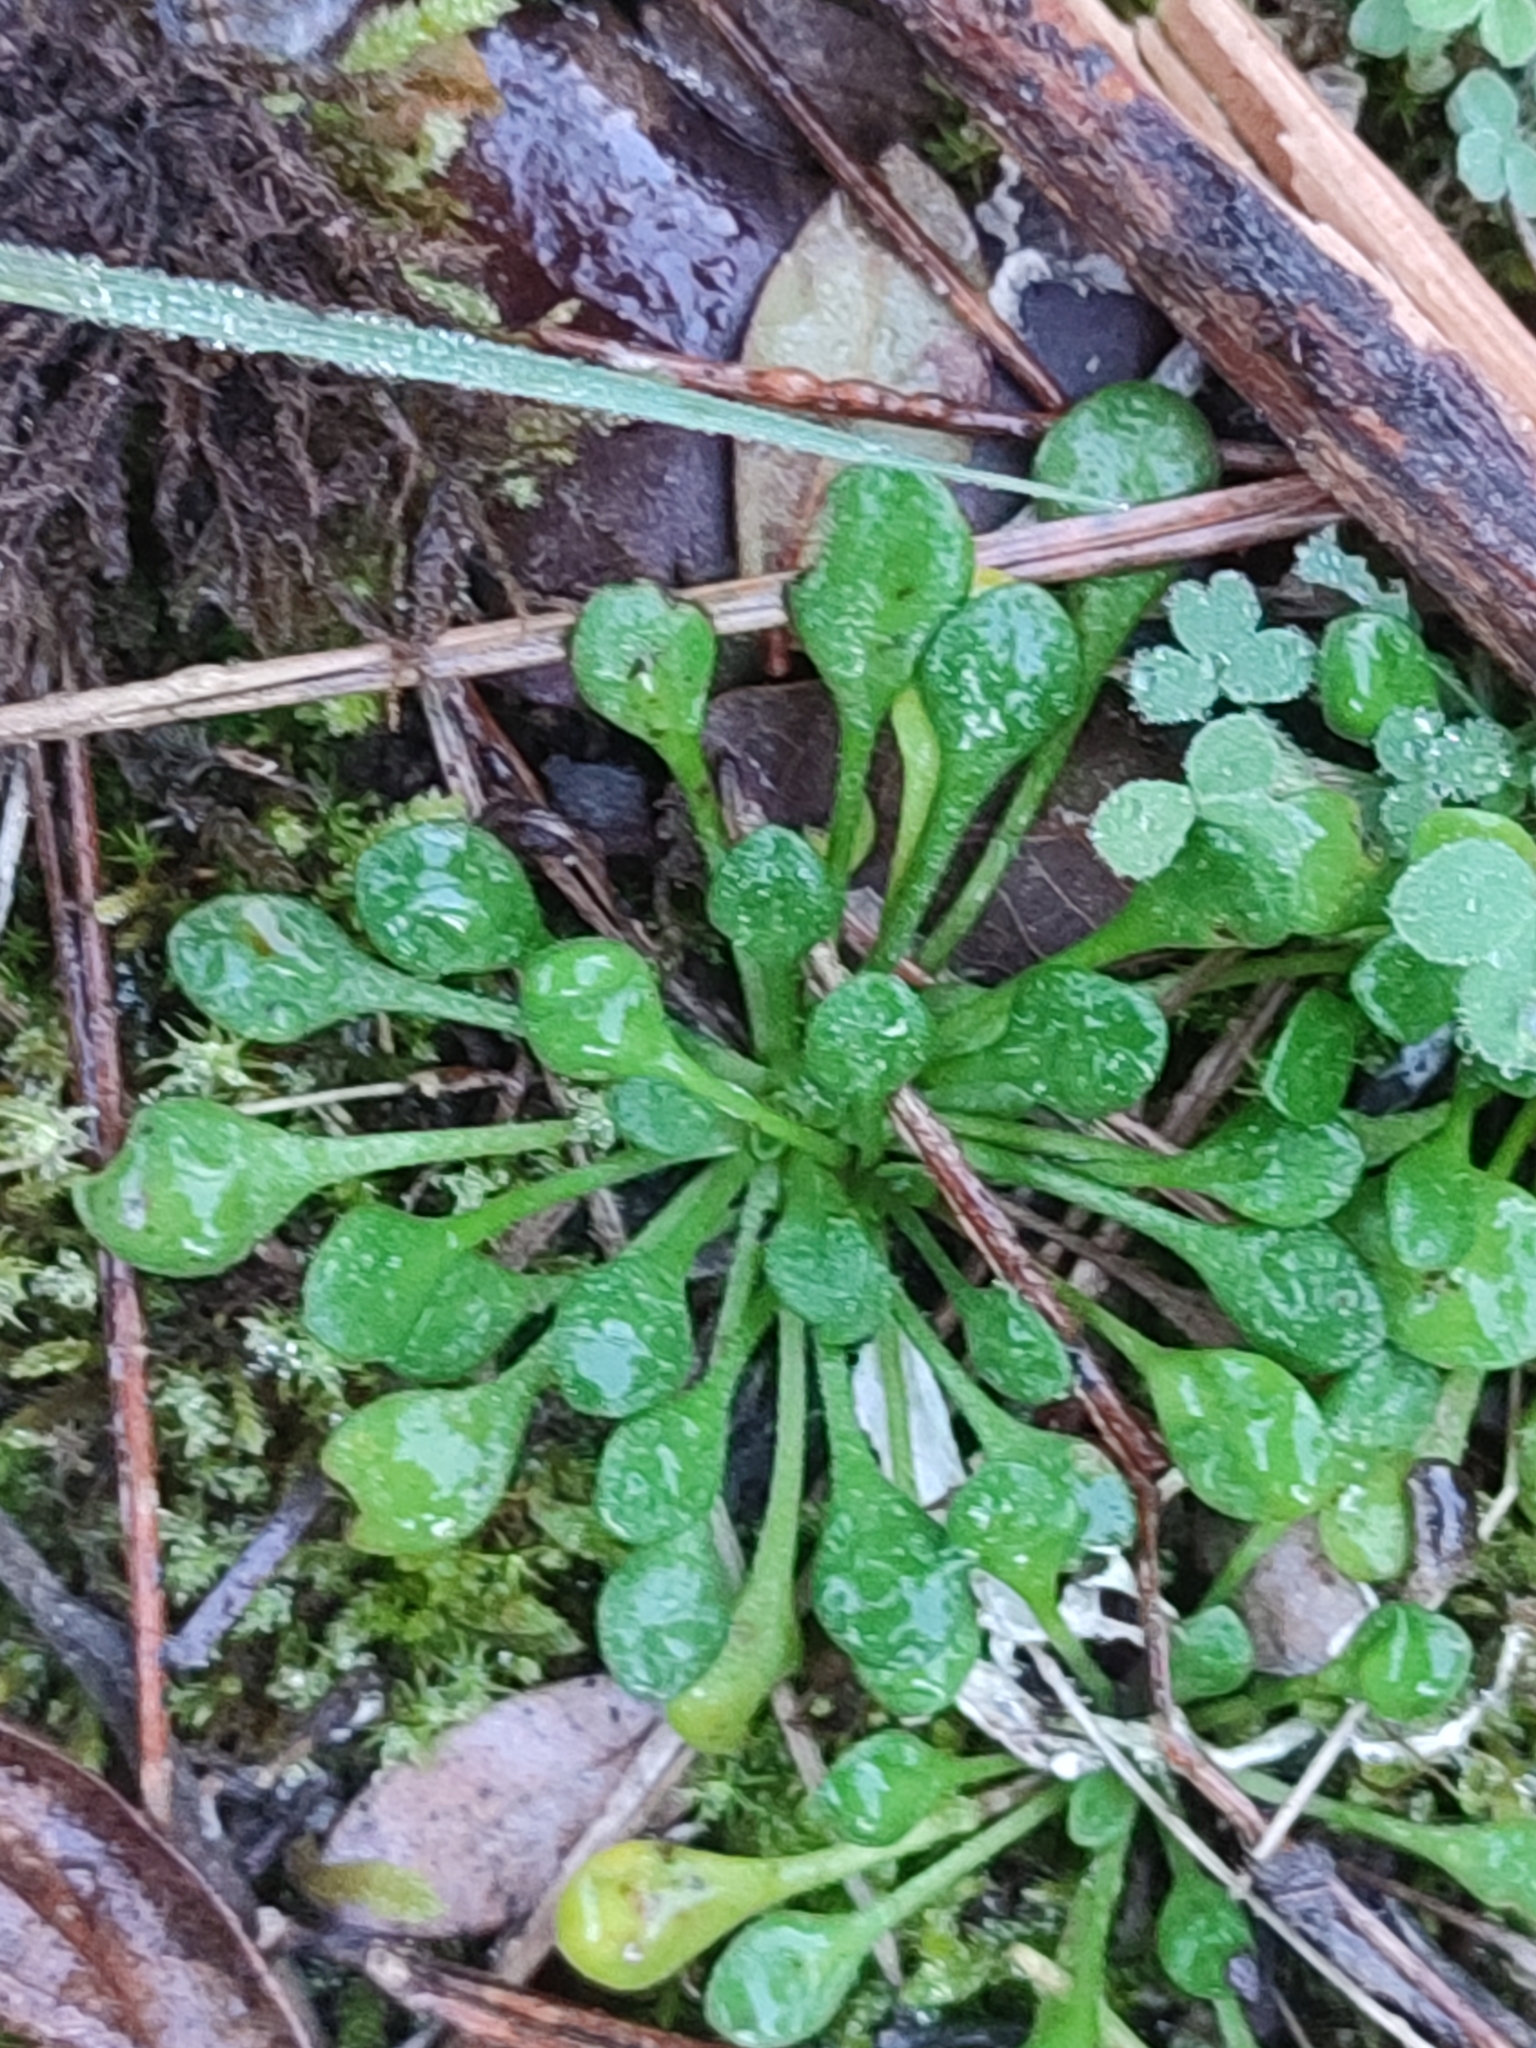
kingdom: Plantae
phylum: Tracheophyta
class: Magnoliopsida
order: Asterales
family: Asteraceae
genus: Bellium
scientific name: Bellium bellidioides
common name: False daisy
